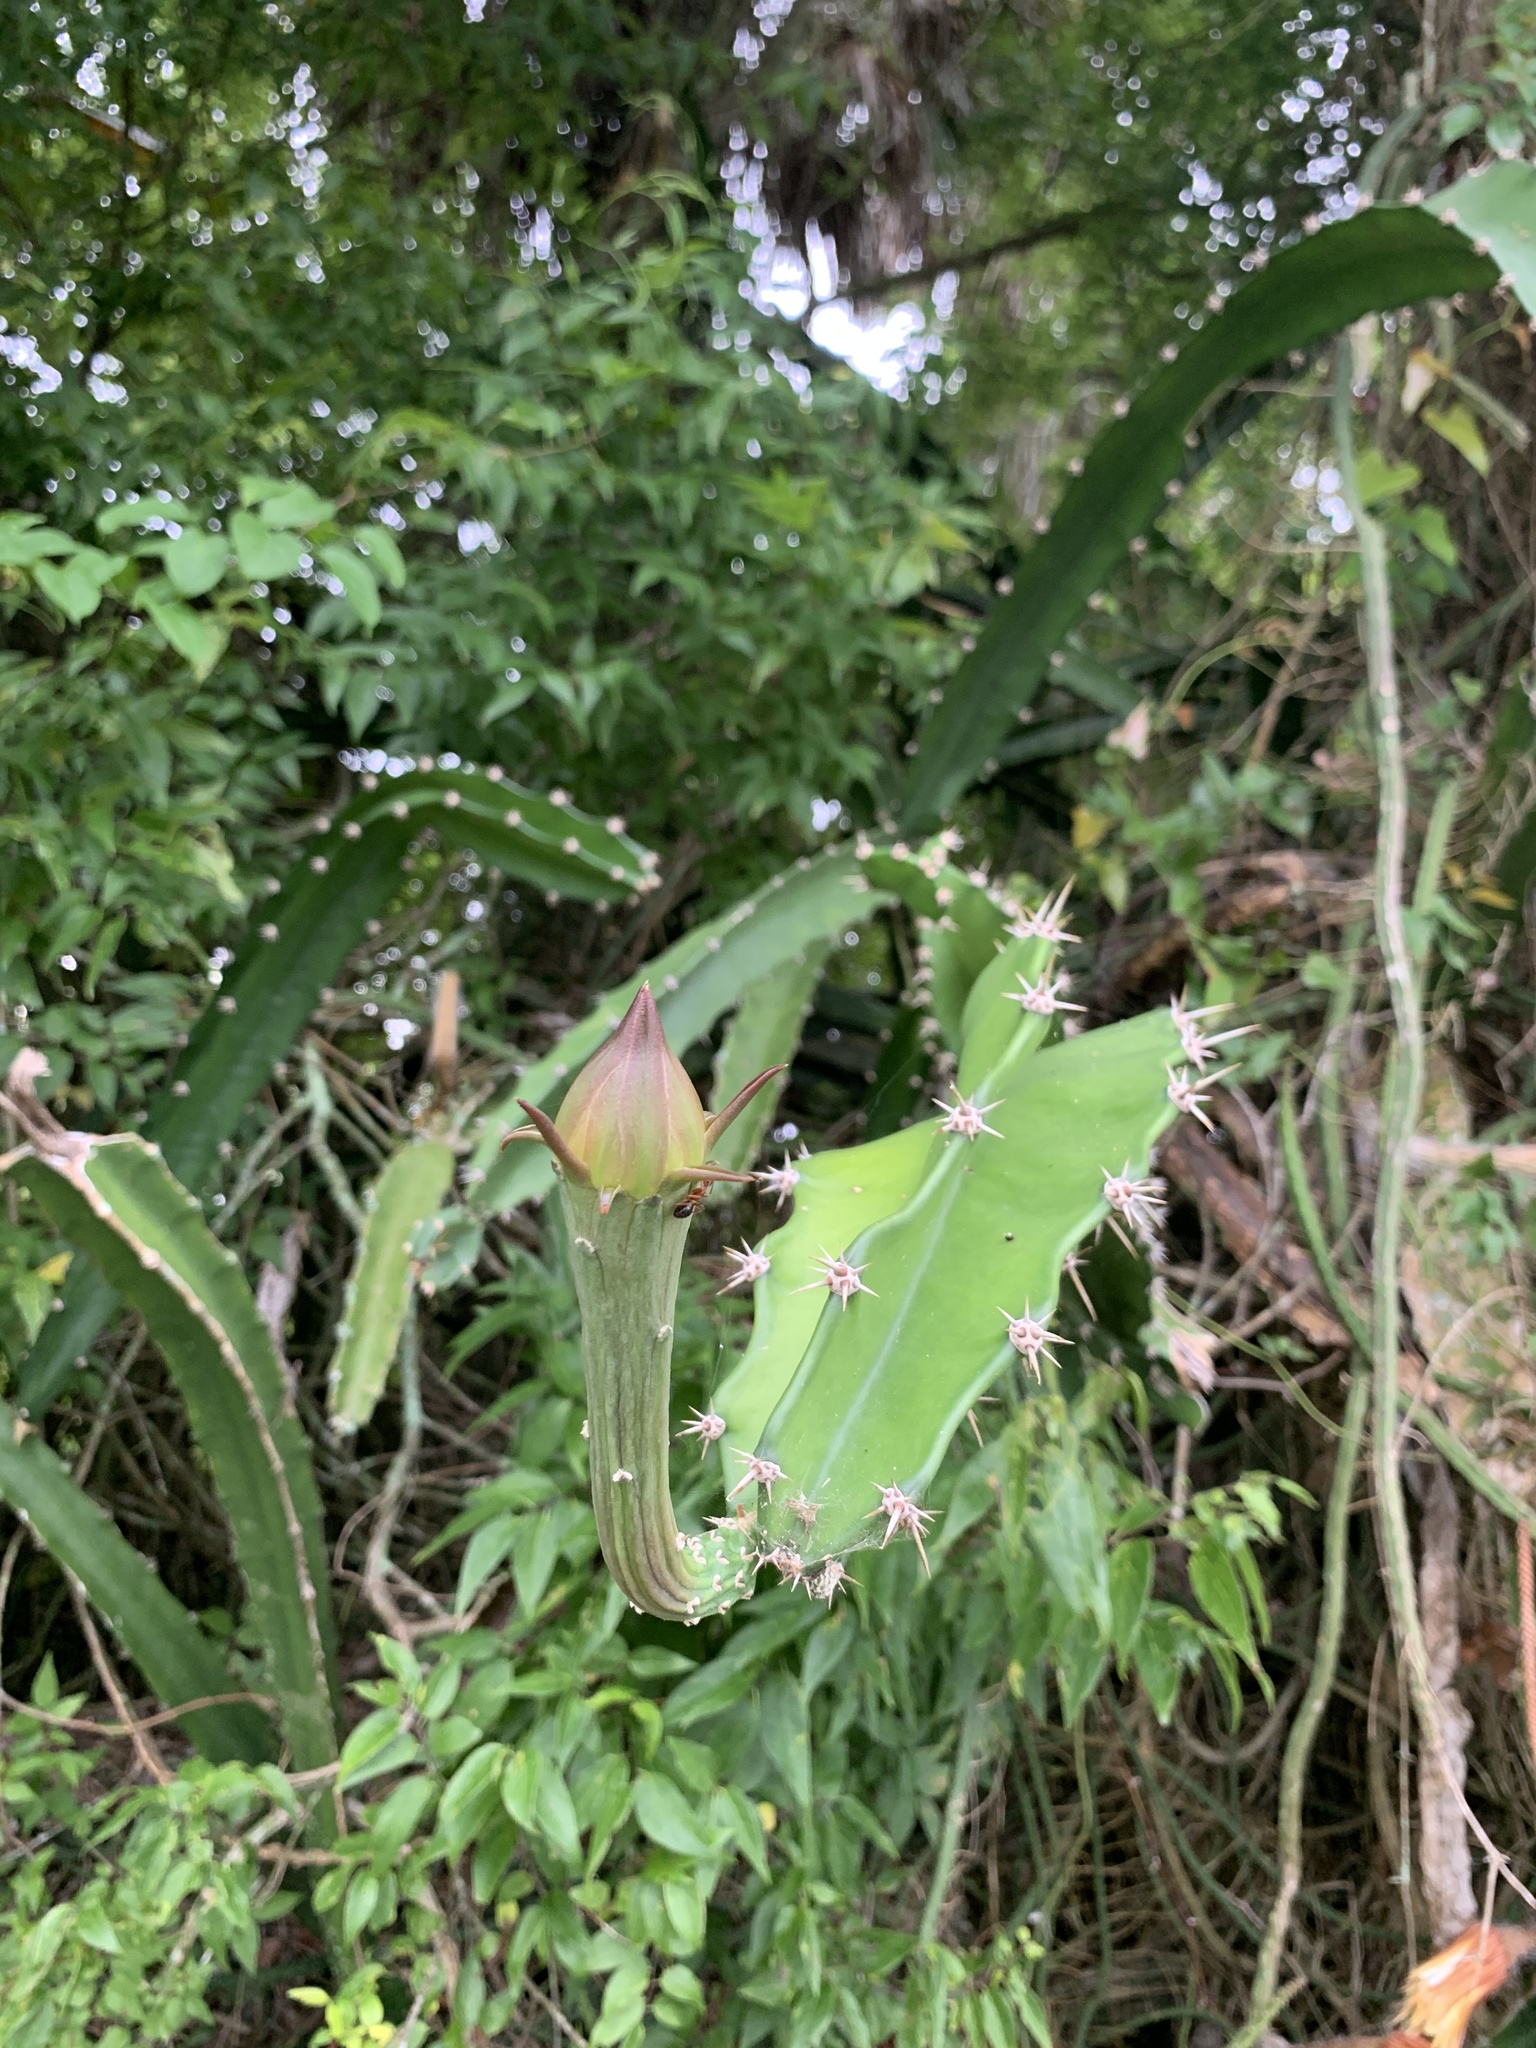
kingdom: Plantae
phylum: Tracheophyta
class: Magnoliopsida
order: Caryophyllales
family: Cactaceae
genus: Acanthocereus
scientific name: Acanthocereus tetragonus
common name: Triangle cactus
